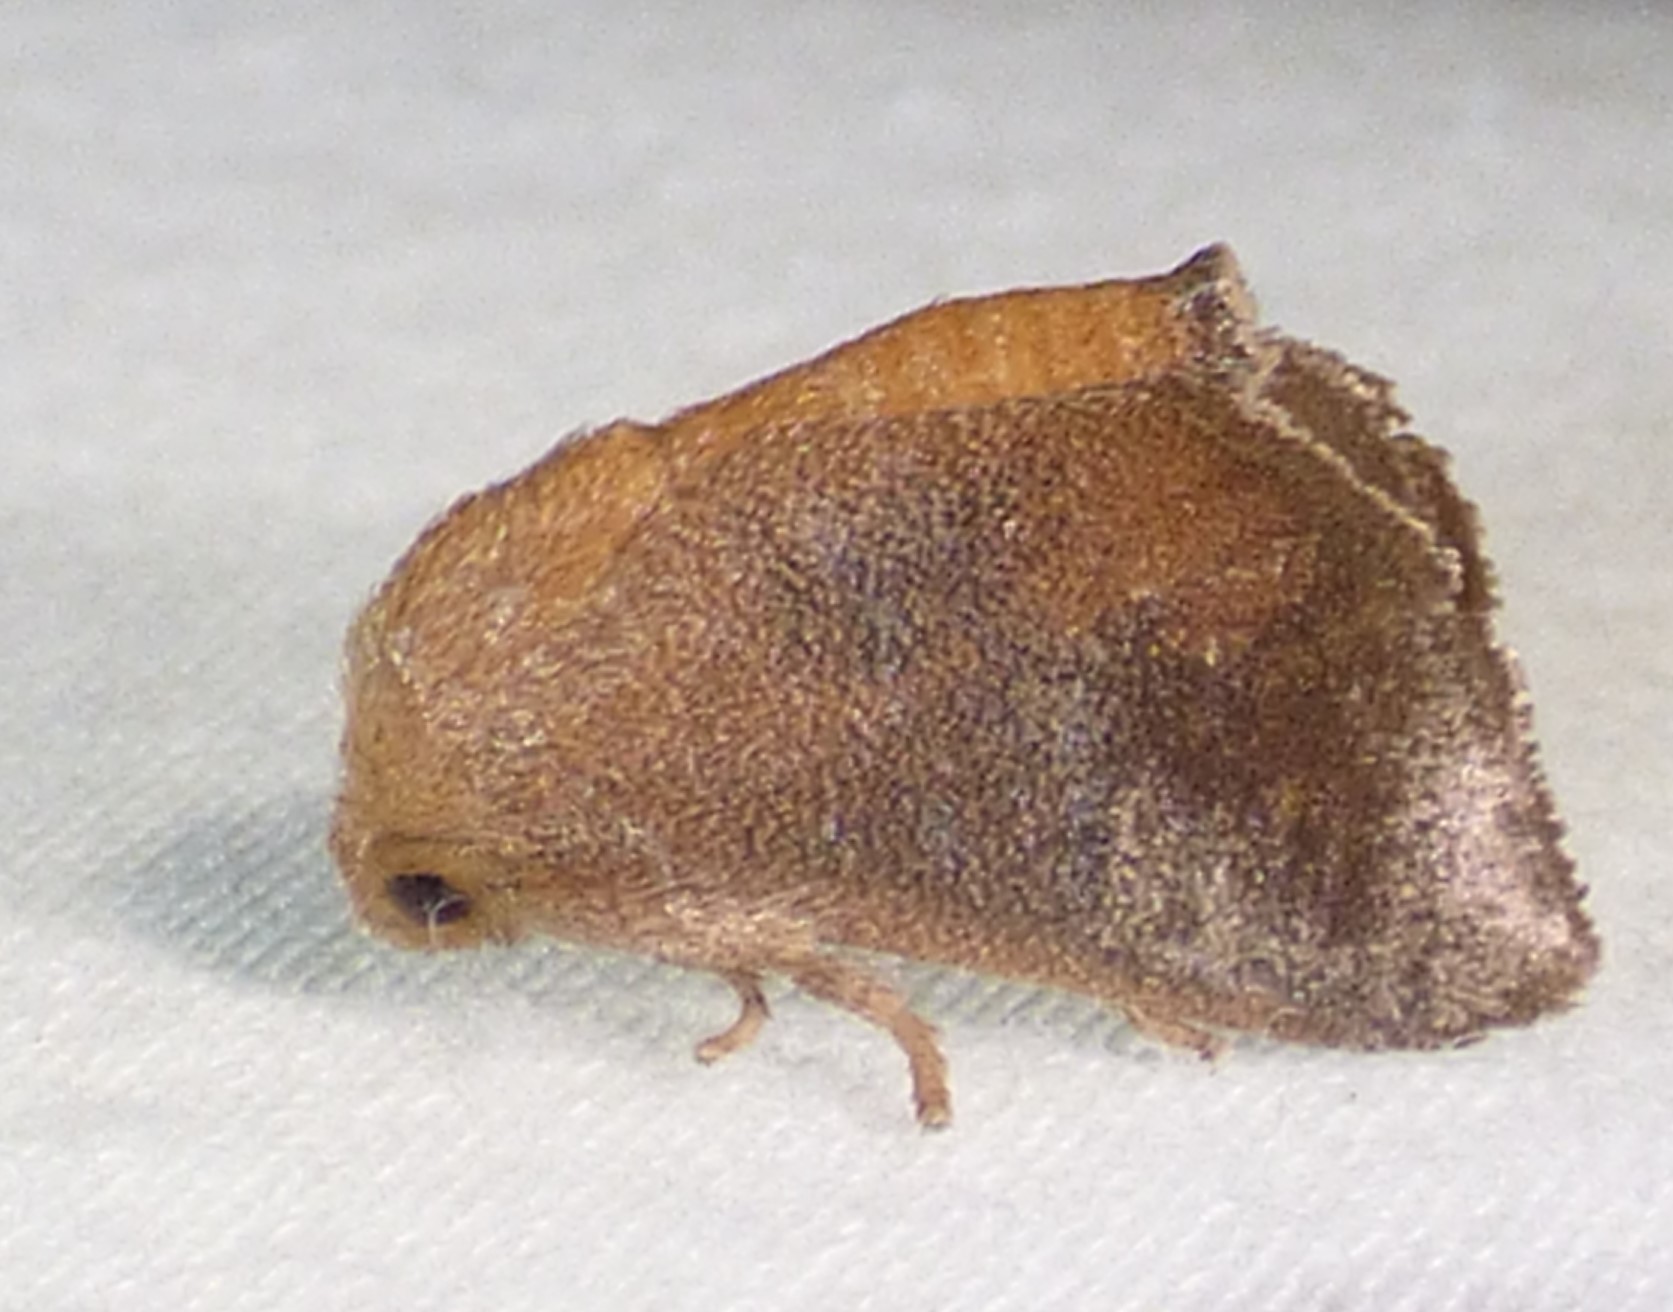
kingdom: Animalia
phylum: Arthropoda
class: Insecta
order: Lepidoptera
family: Limacodidae
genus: Isa
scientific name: Isa textula
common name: Crowned slug moth
